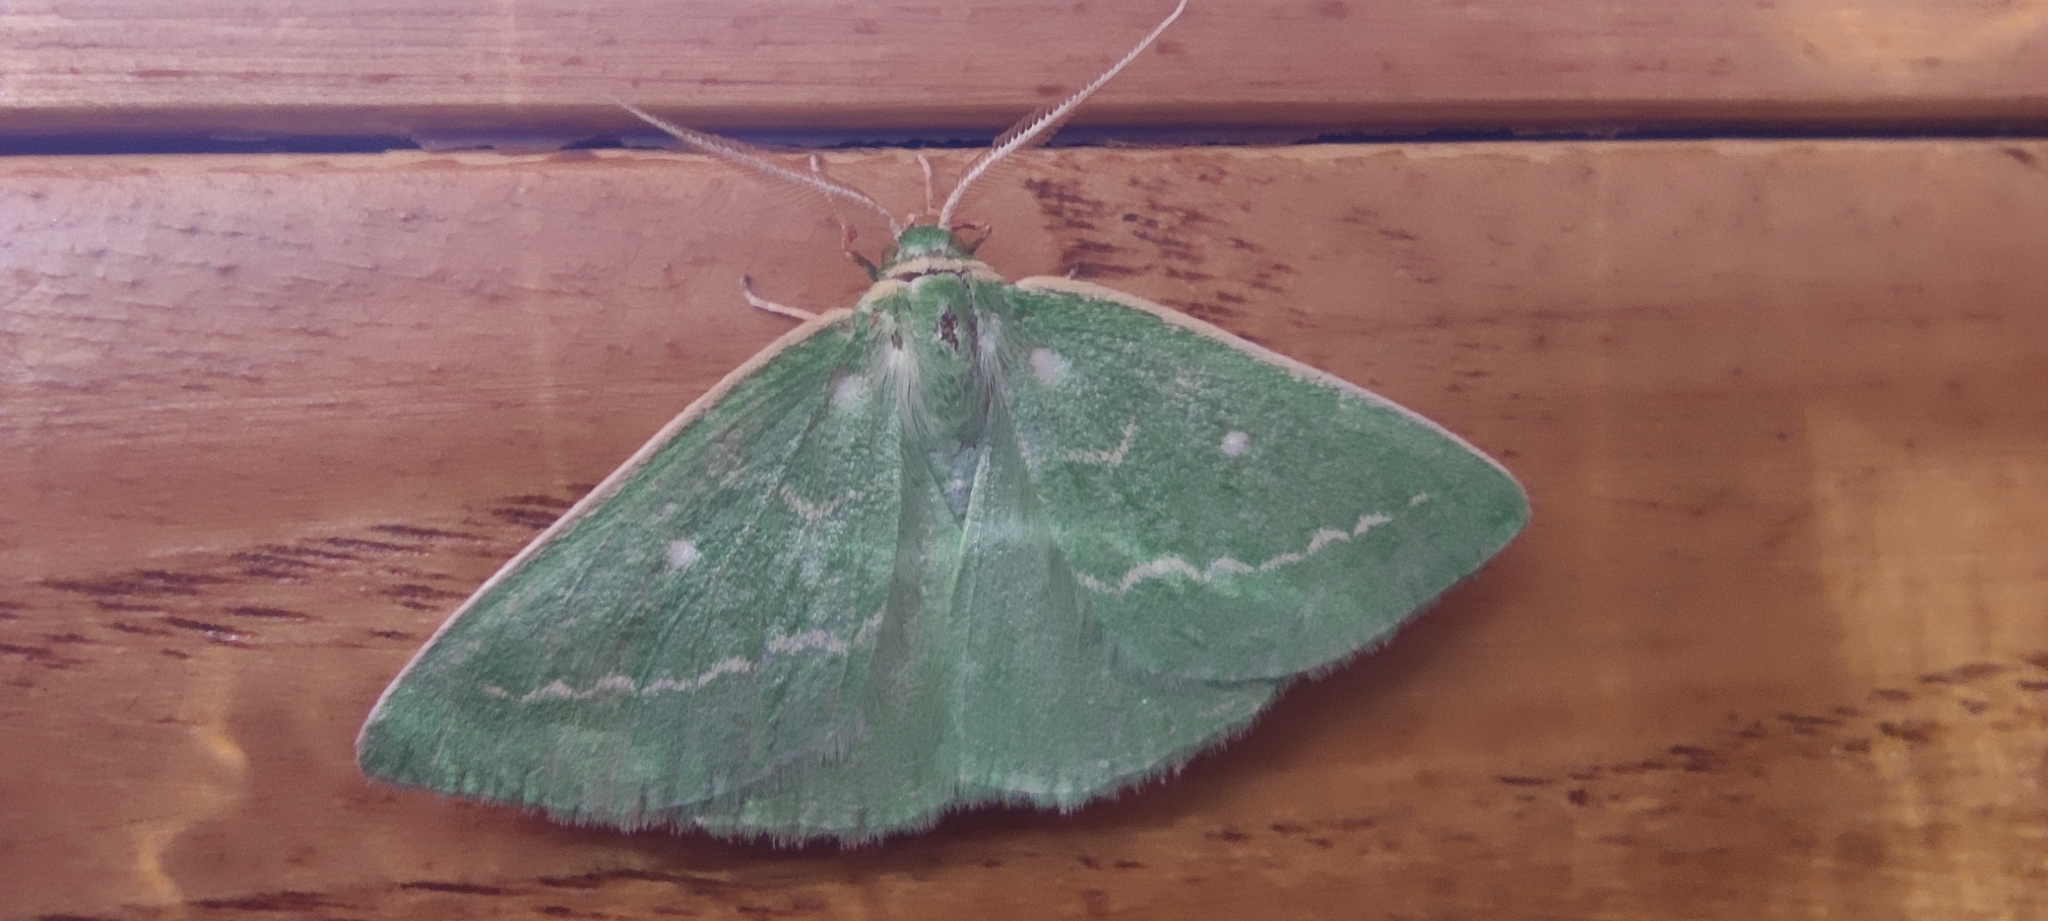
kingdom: Animalia
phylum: Arthropoda
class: Insecta
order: Lepidoptera
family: Geometridae
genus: Thetidia
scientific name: Thetidia smaragdaria
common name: Essex emerald
